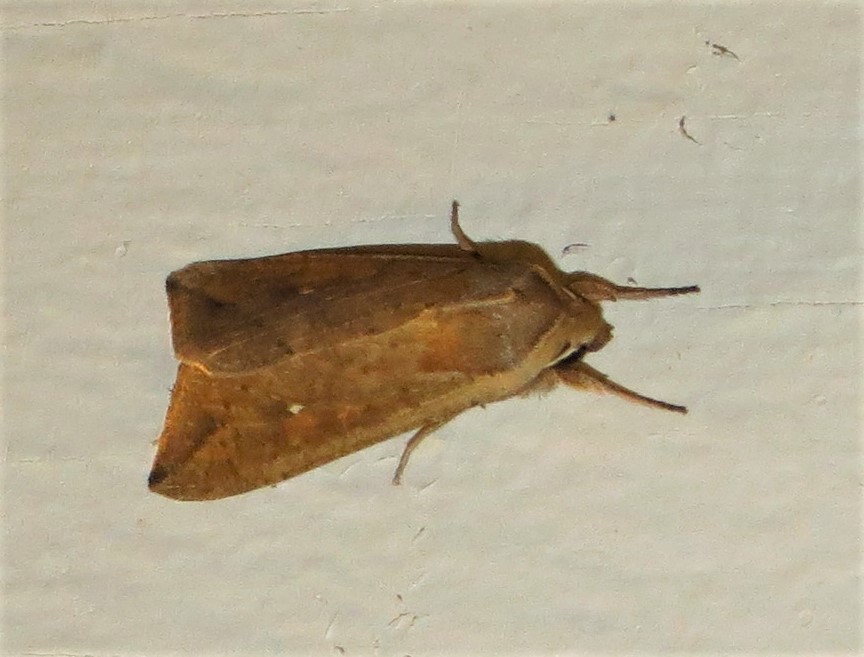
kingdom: Animalia
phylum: Arthropoda
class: Insecta
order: Lepidoptera
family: Noctuidae
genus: Mythimna
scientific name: Mythimna unipuncta
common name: White-speck
